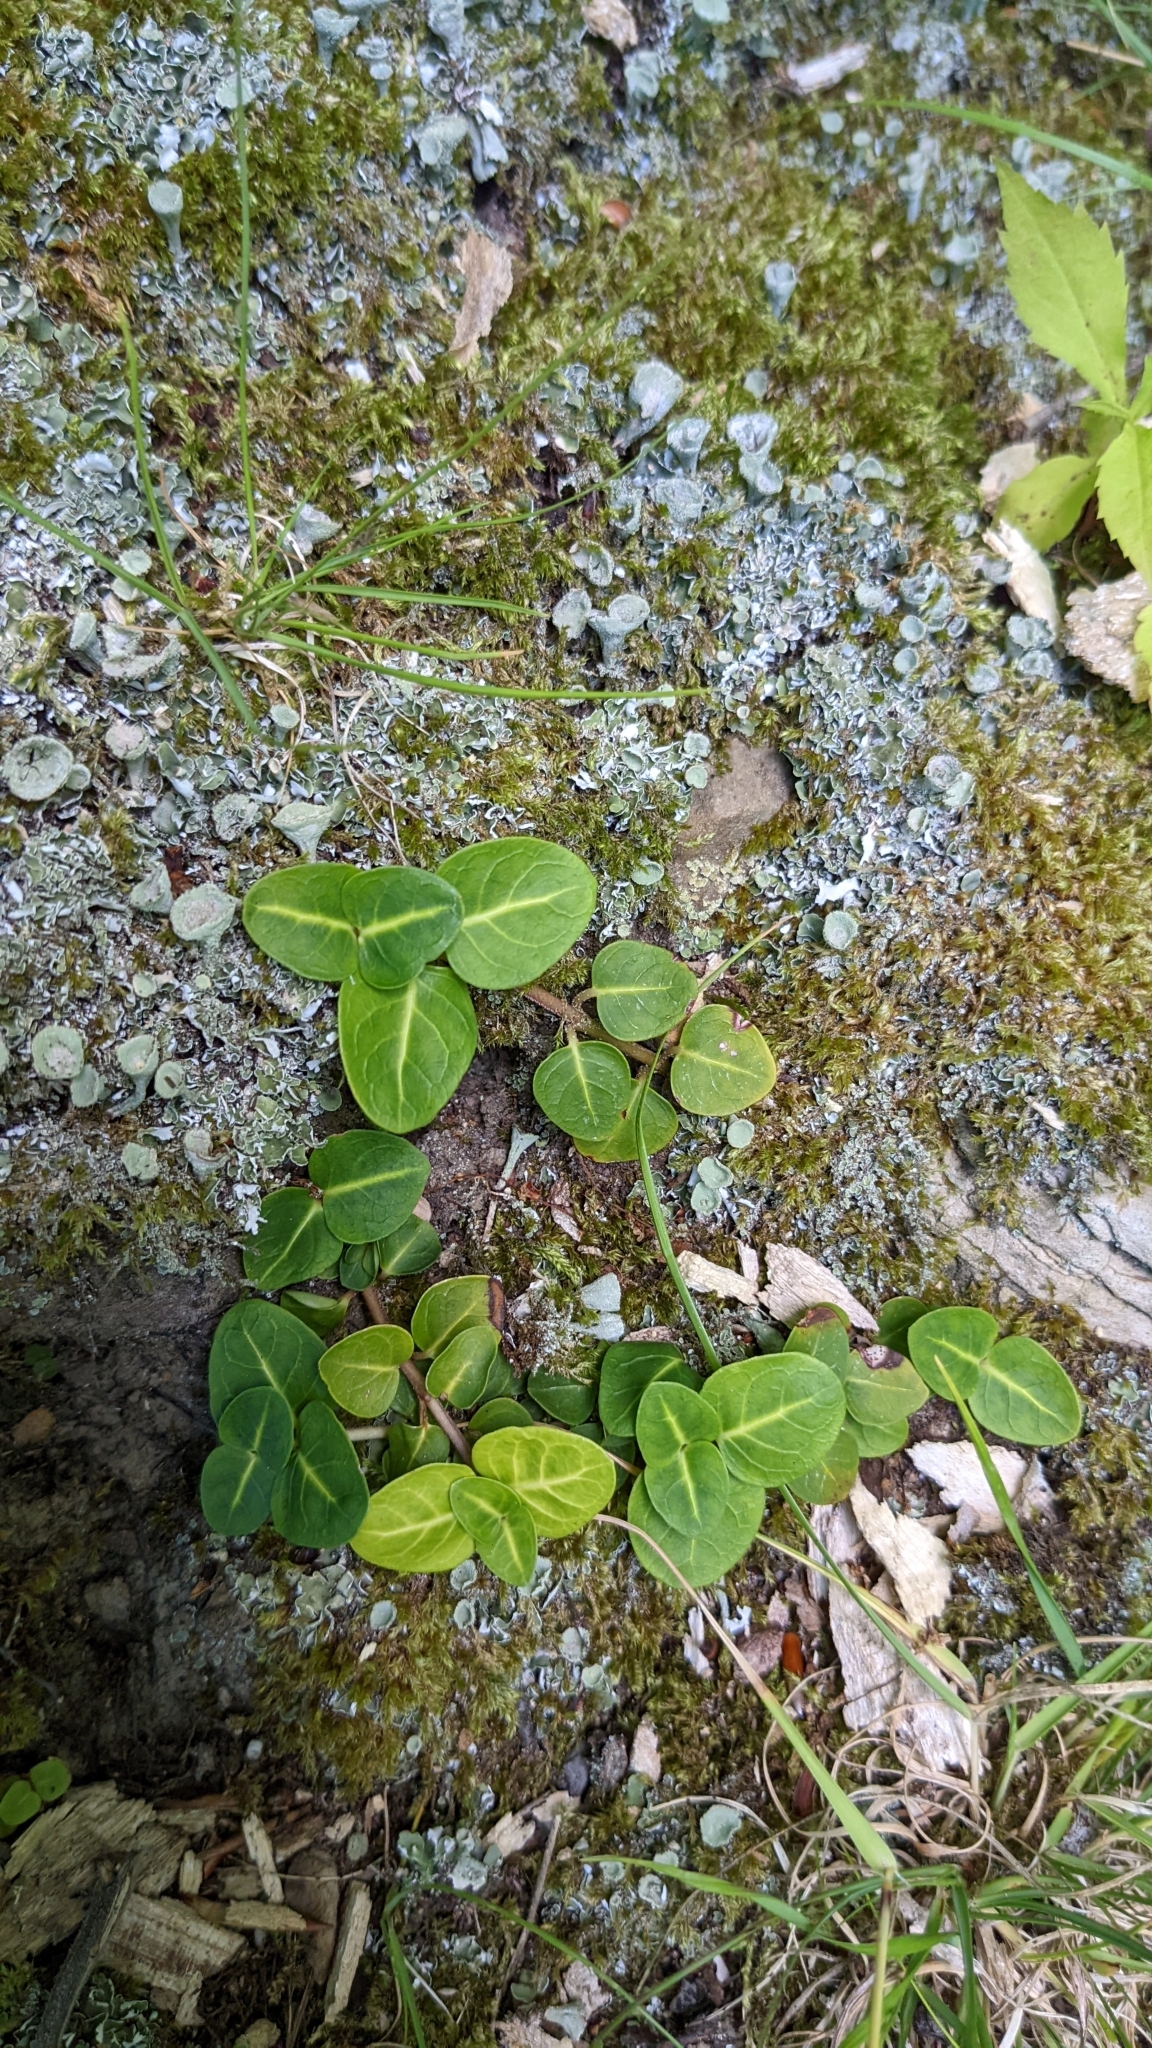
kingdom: Plantae
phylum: Tracheophyta
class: Magnoliopsida
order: Gentianales
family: Rubiaceae
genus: Mitchella
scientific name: Mitchella repens
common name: Partridge-berry
